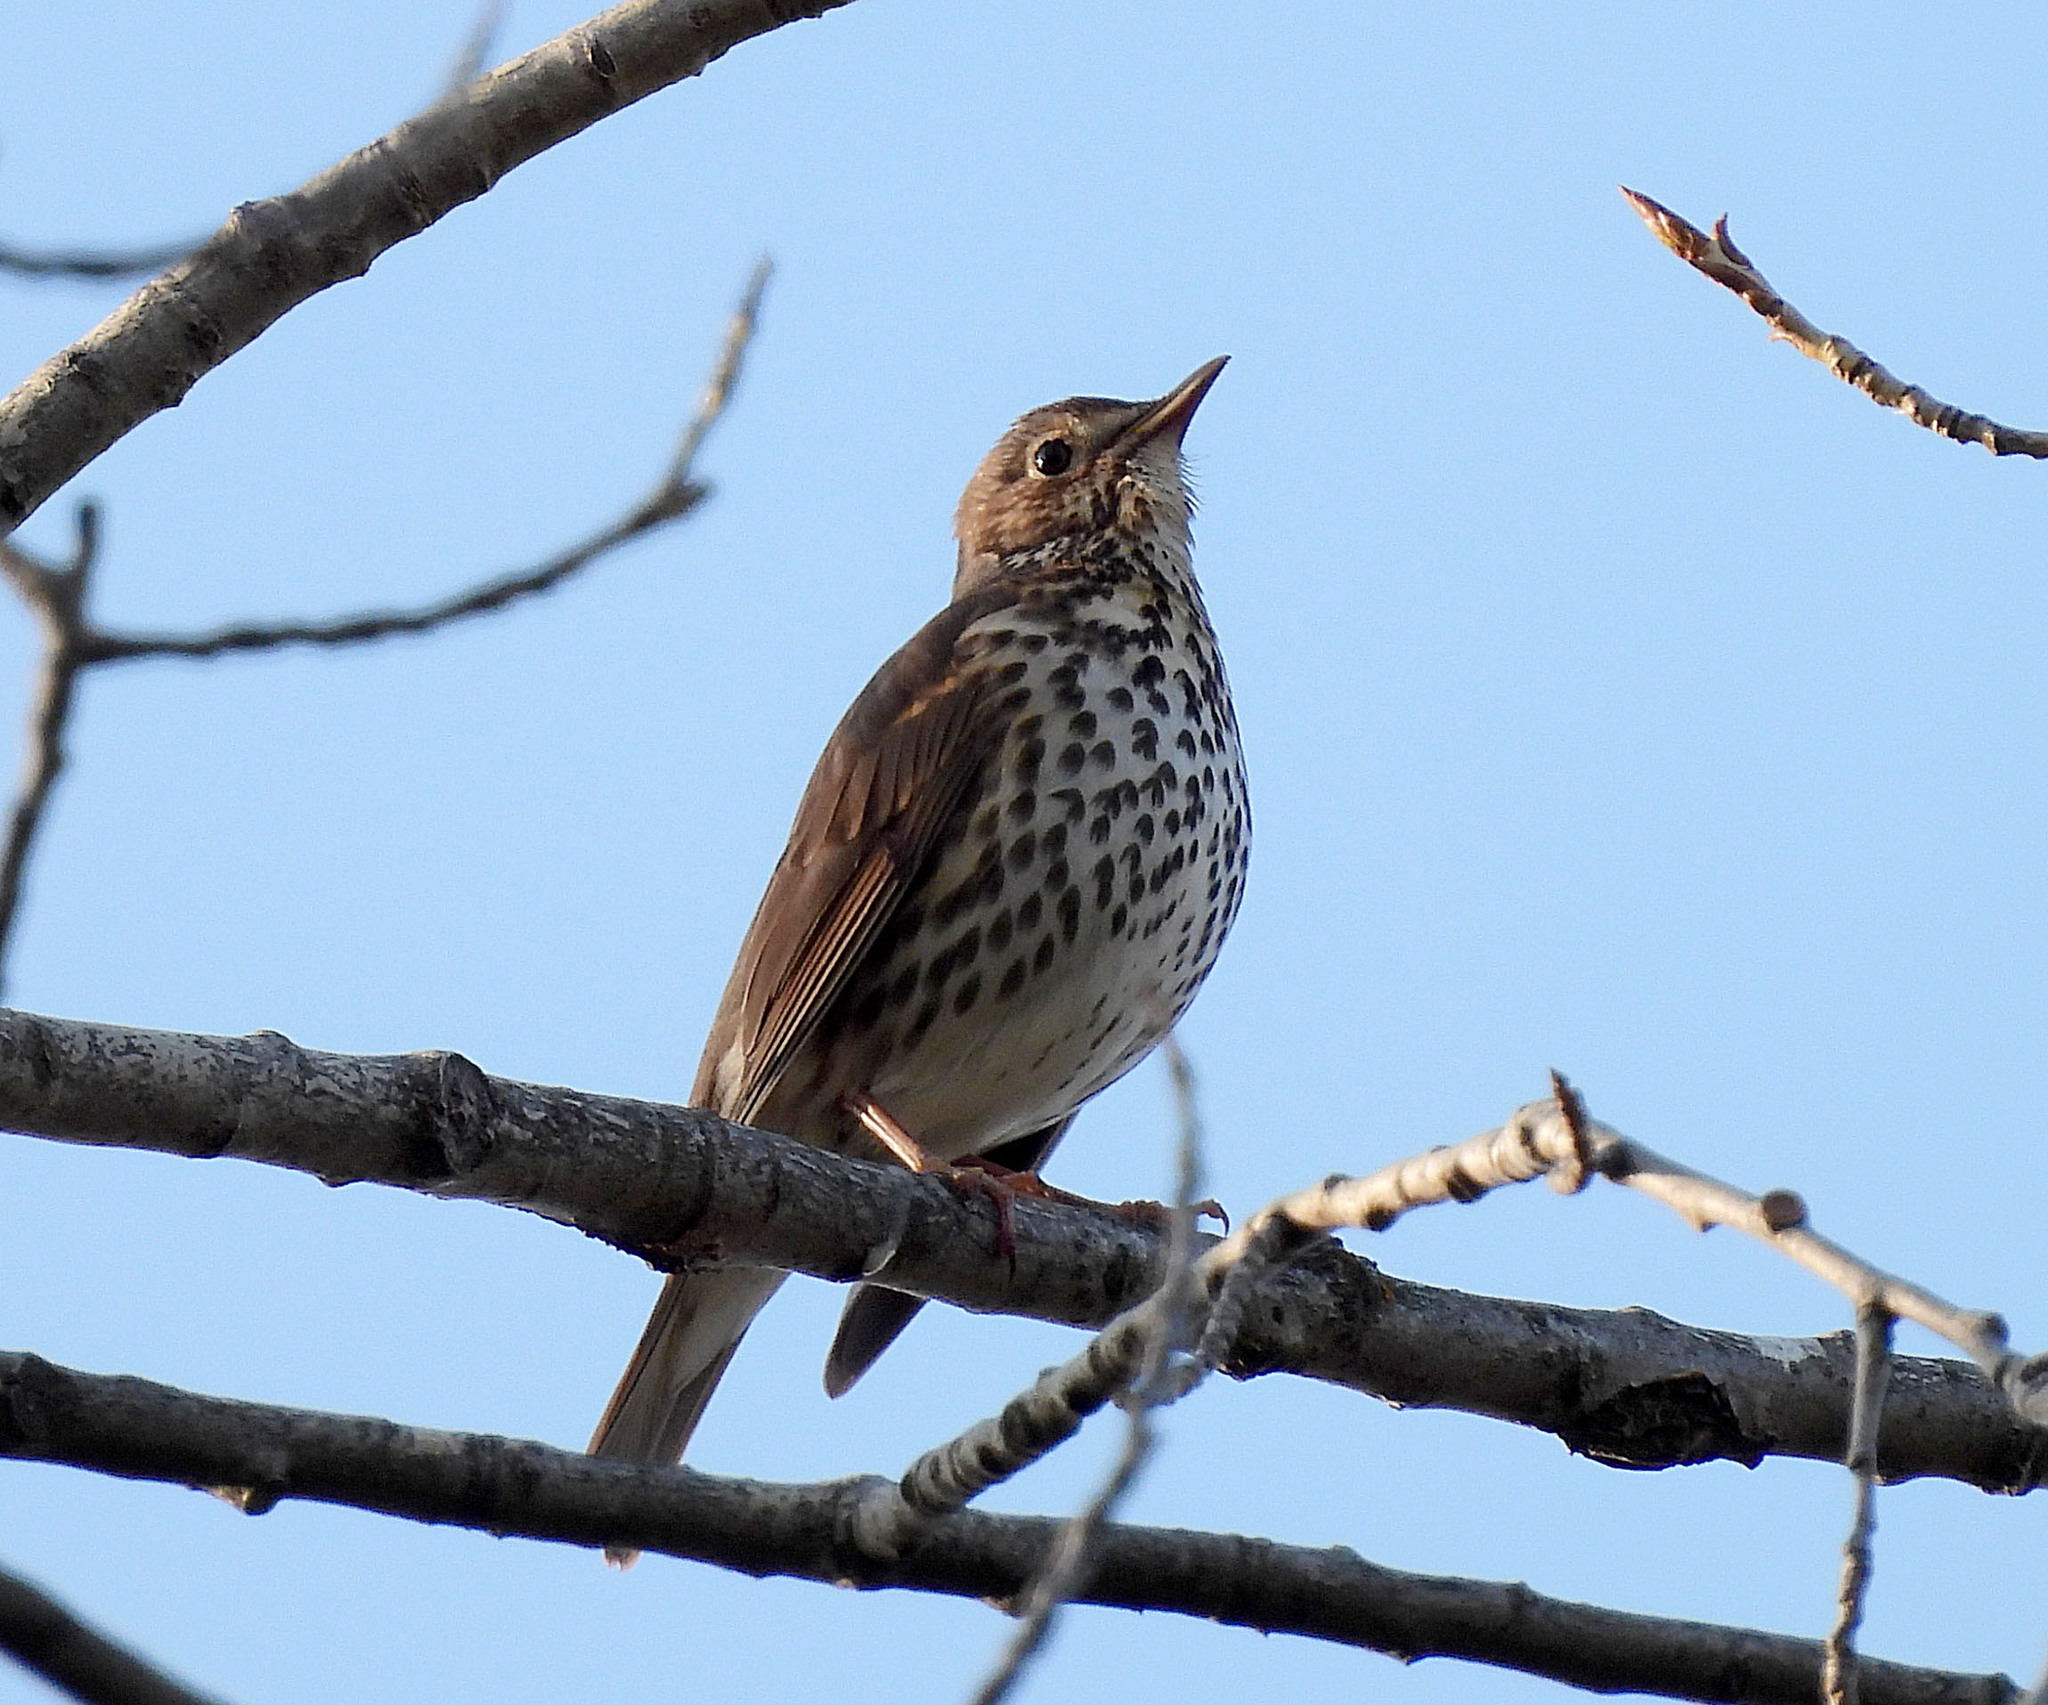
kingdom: Animalia
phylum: Chordata
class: Aves
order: Passeriformes
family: Turdidae
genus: Turdus
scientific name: Turdus philomelos
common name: Song thrush
